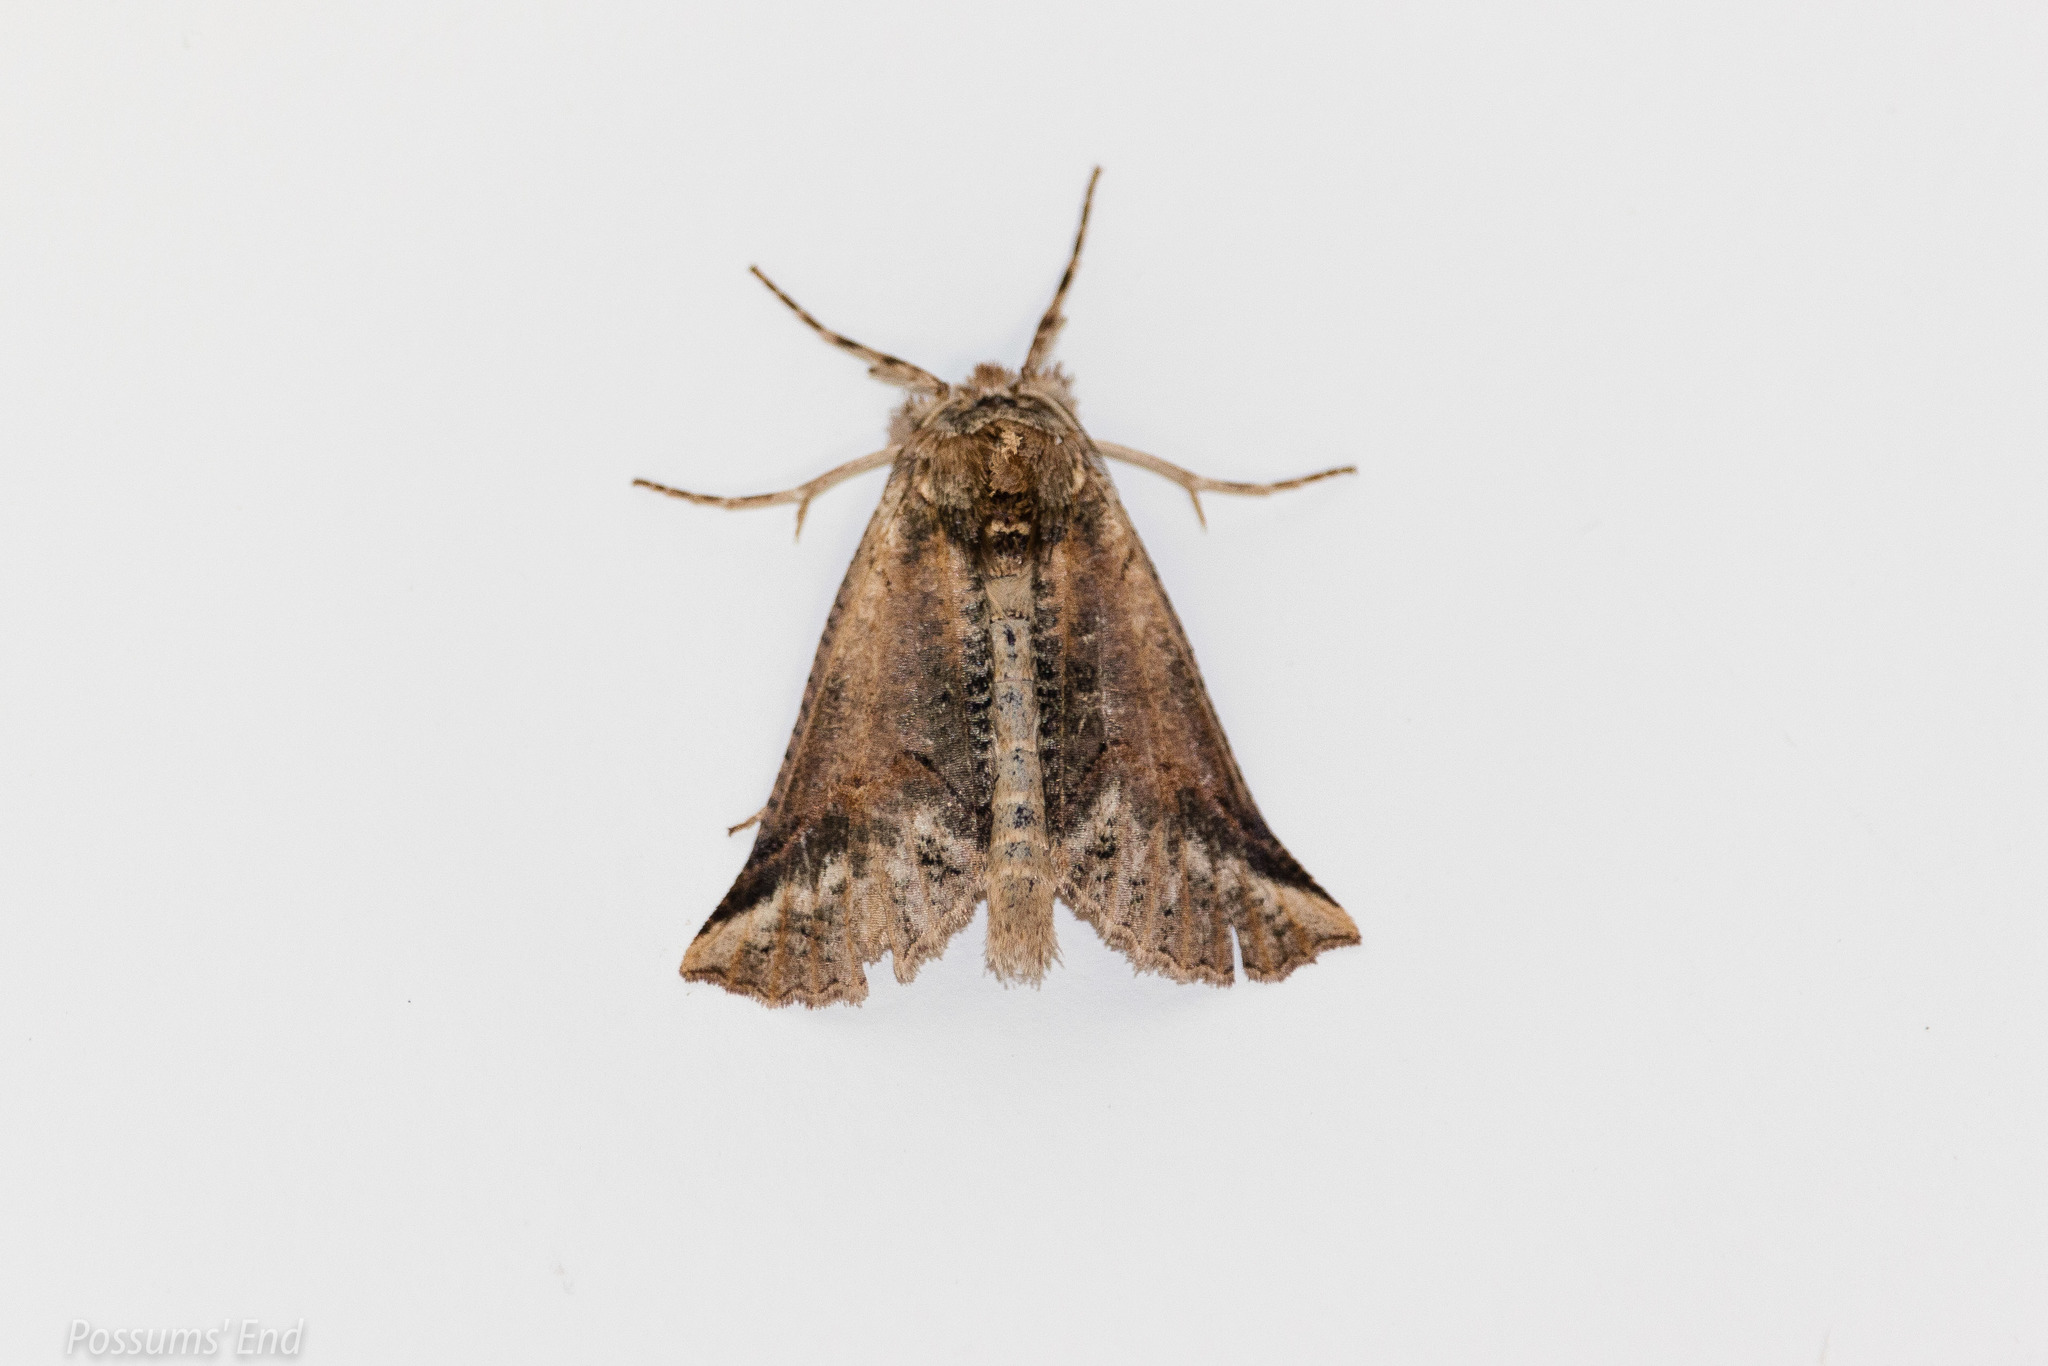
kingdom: Animalia
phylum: Arthropoda
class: Insecta
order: Lepidoptera
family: Geometridae
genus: Declana
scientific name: Declana
